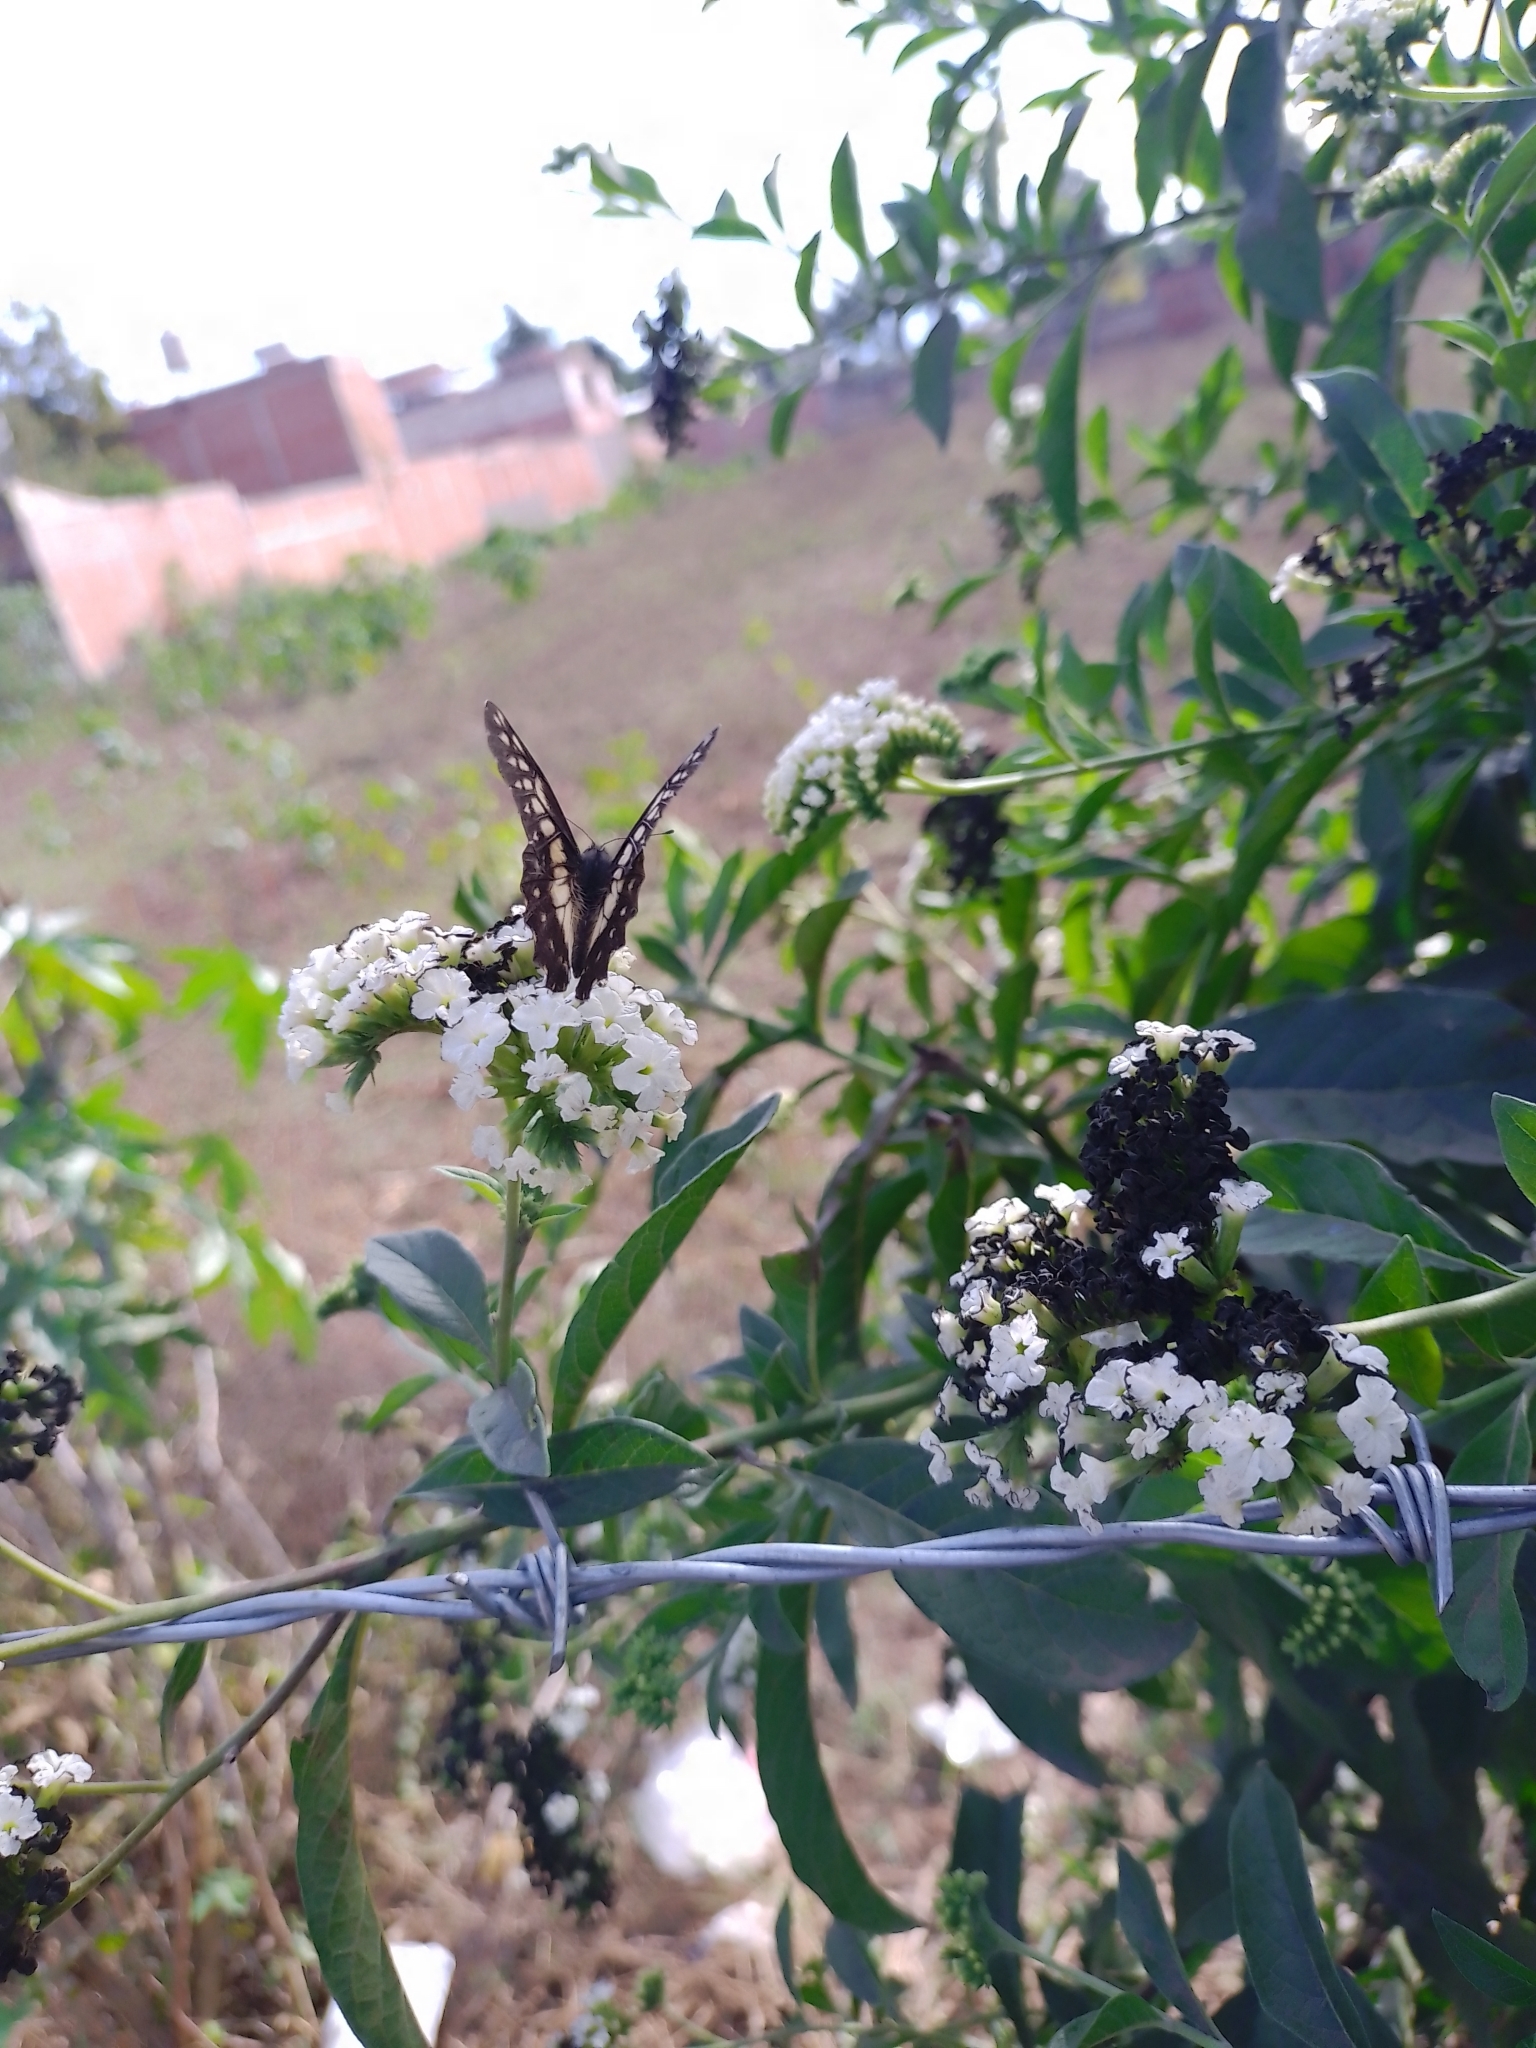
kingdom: Animalia
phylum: Arthropoda
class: Insecta
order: Lepidoptera
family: Pieridae
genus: Archonias
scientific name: Archonias nimbice
